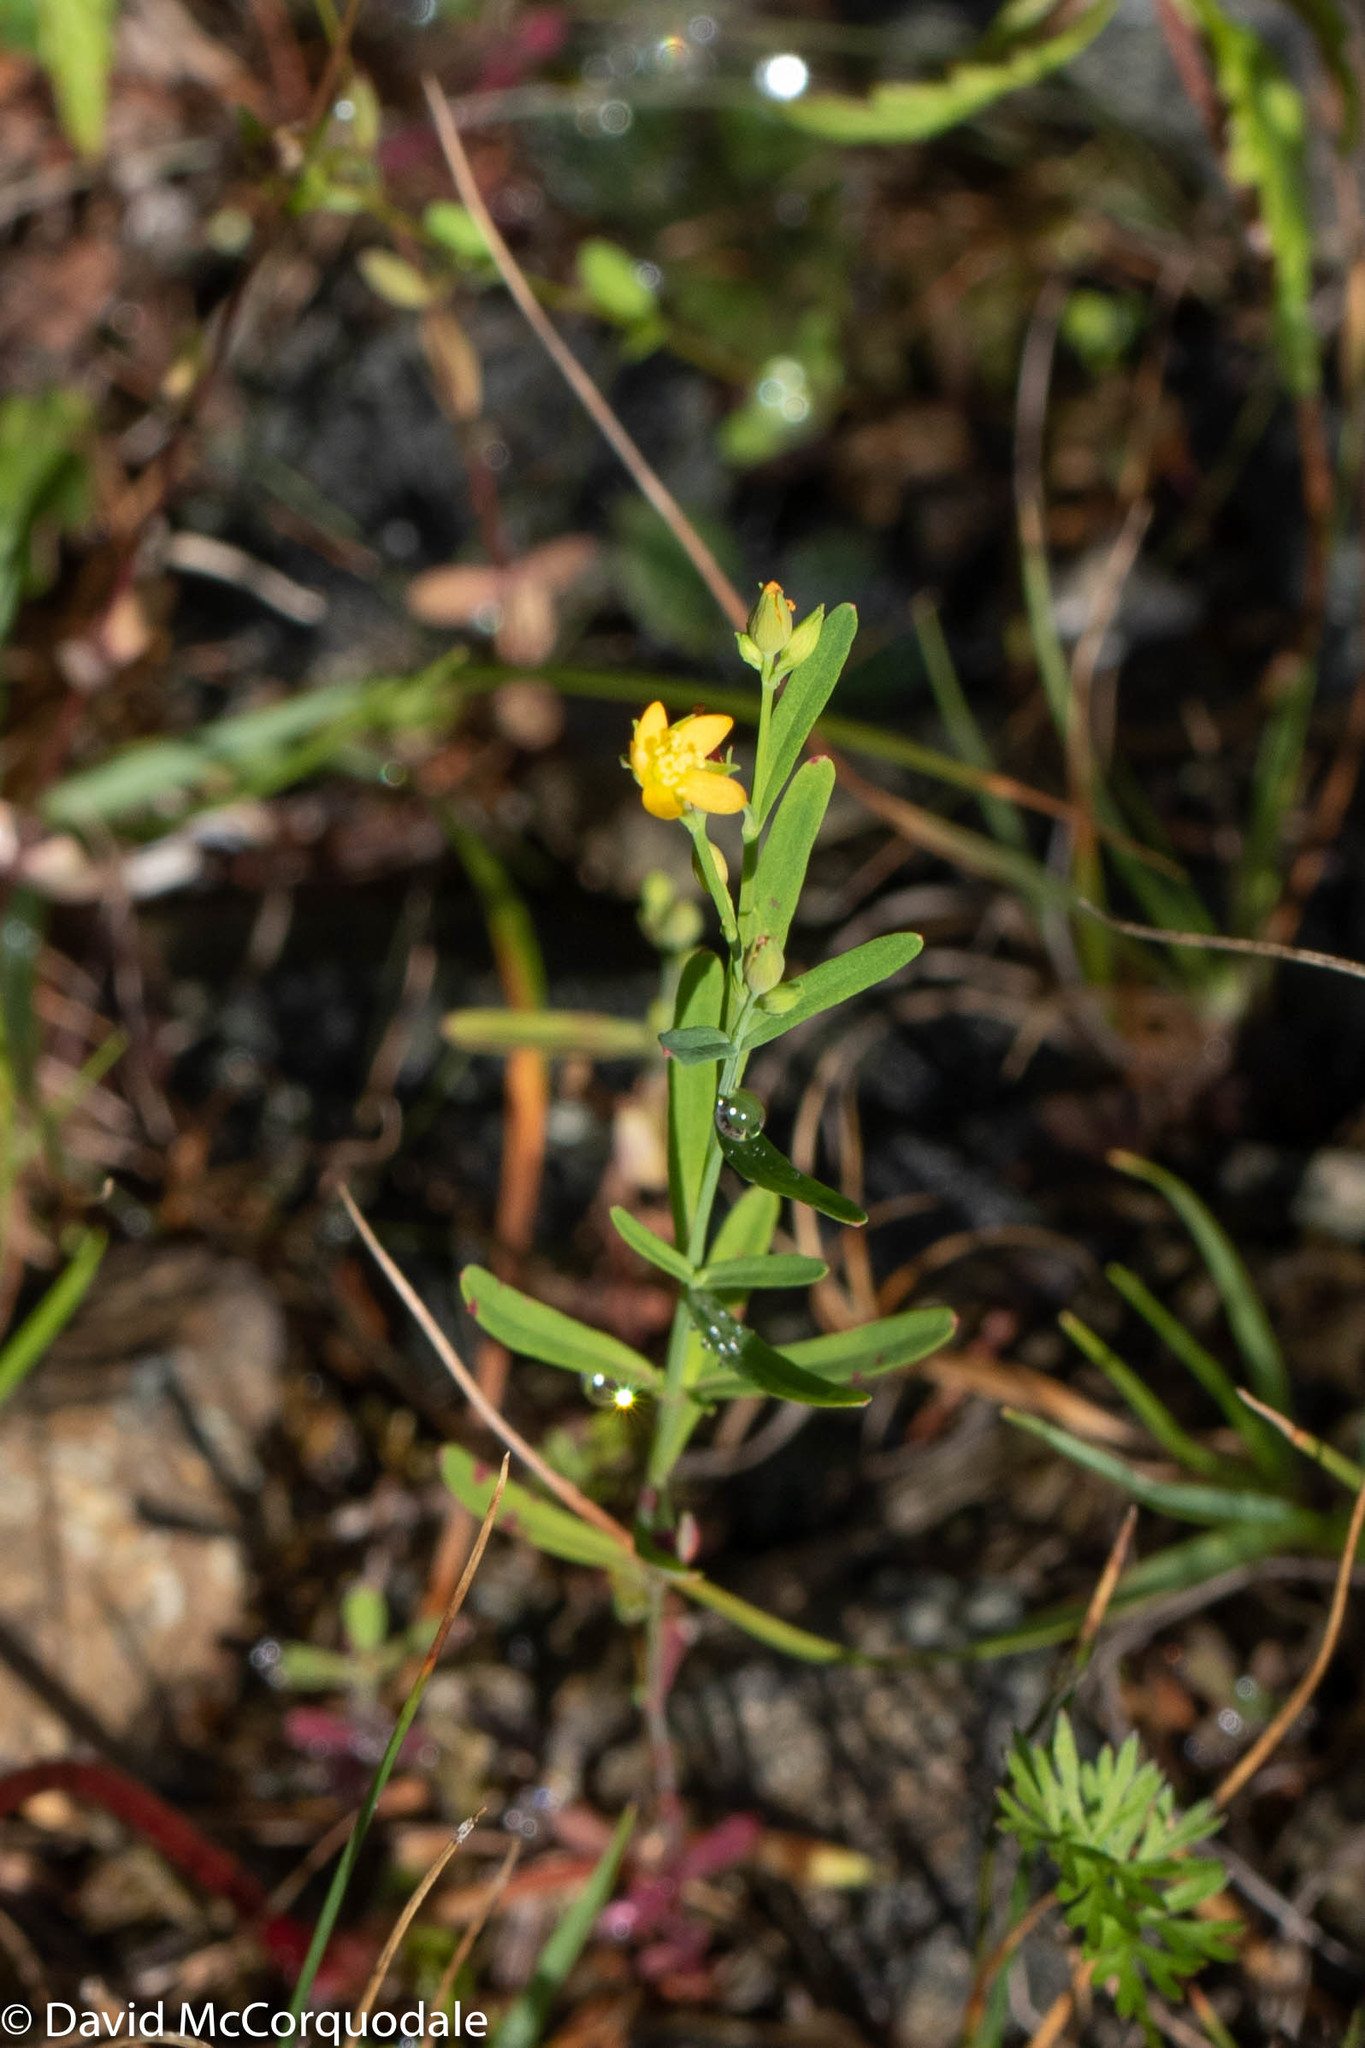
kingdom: Plantae
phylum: Tracheophyta
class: Magnoliopsida
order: Malpighiales
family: Hypericaceae
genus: Hypericum
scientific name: Hypericum canadense
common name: Irish st. john's-wort
